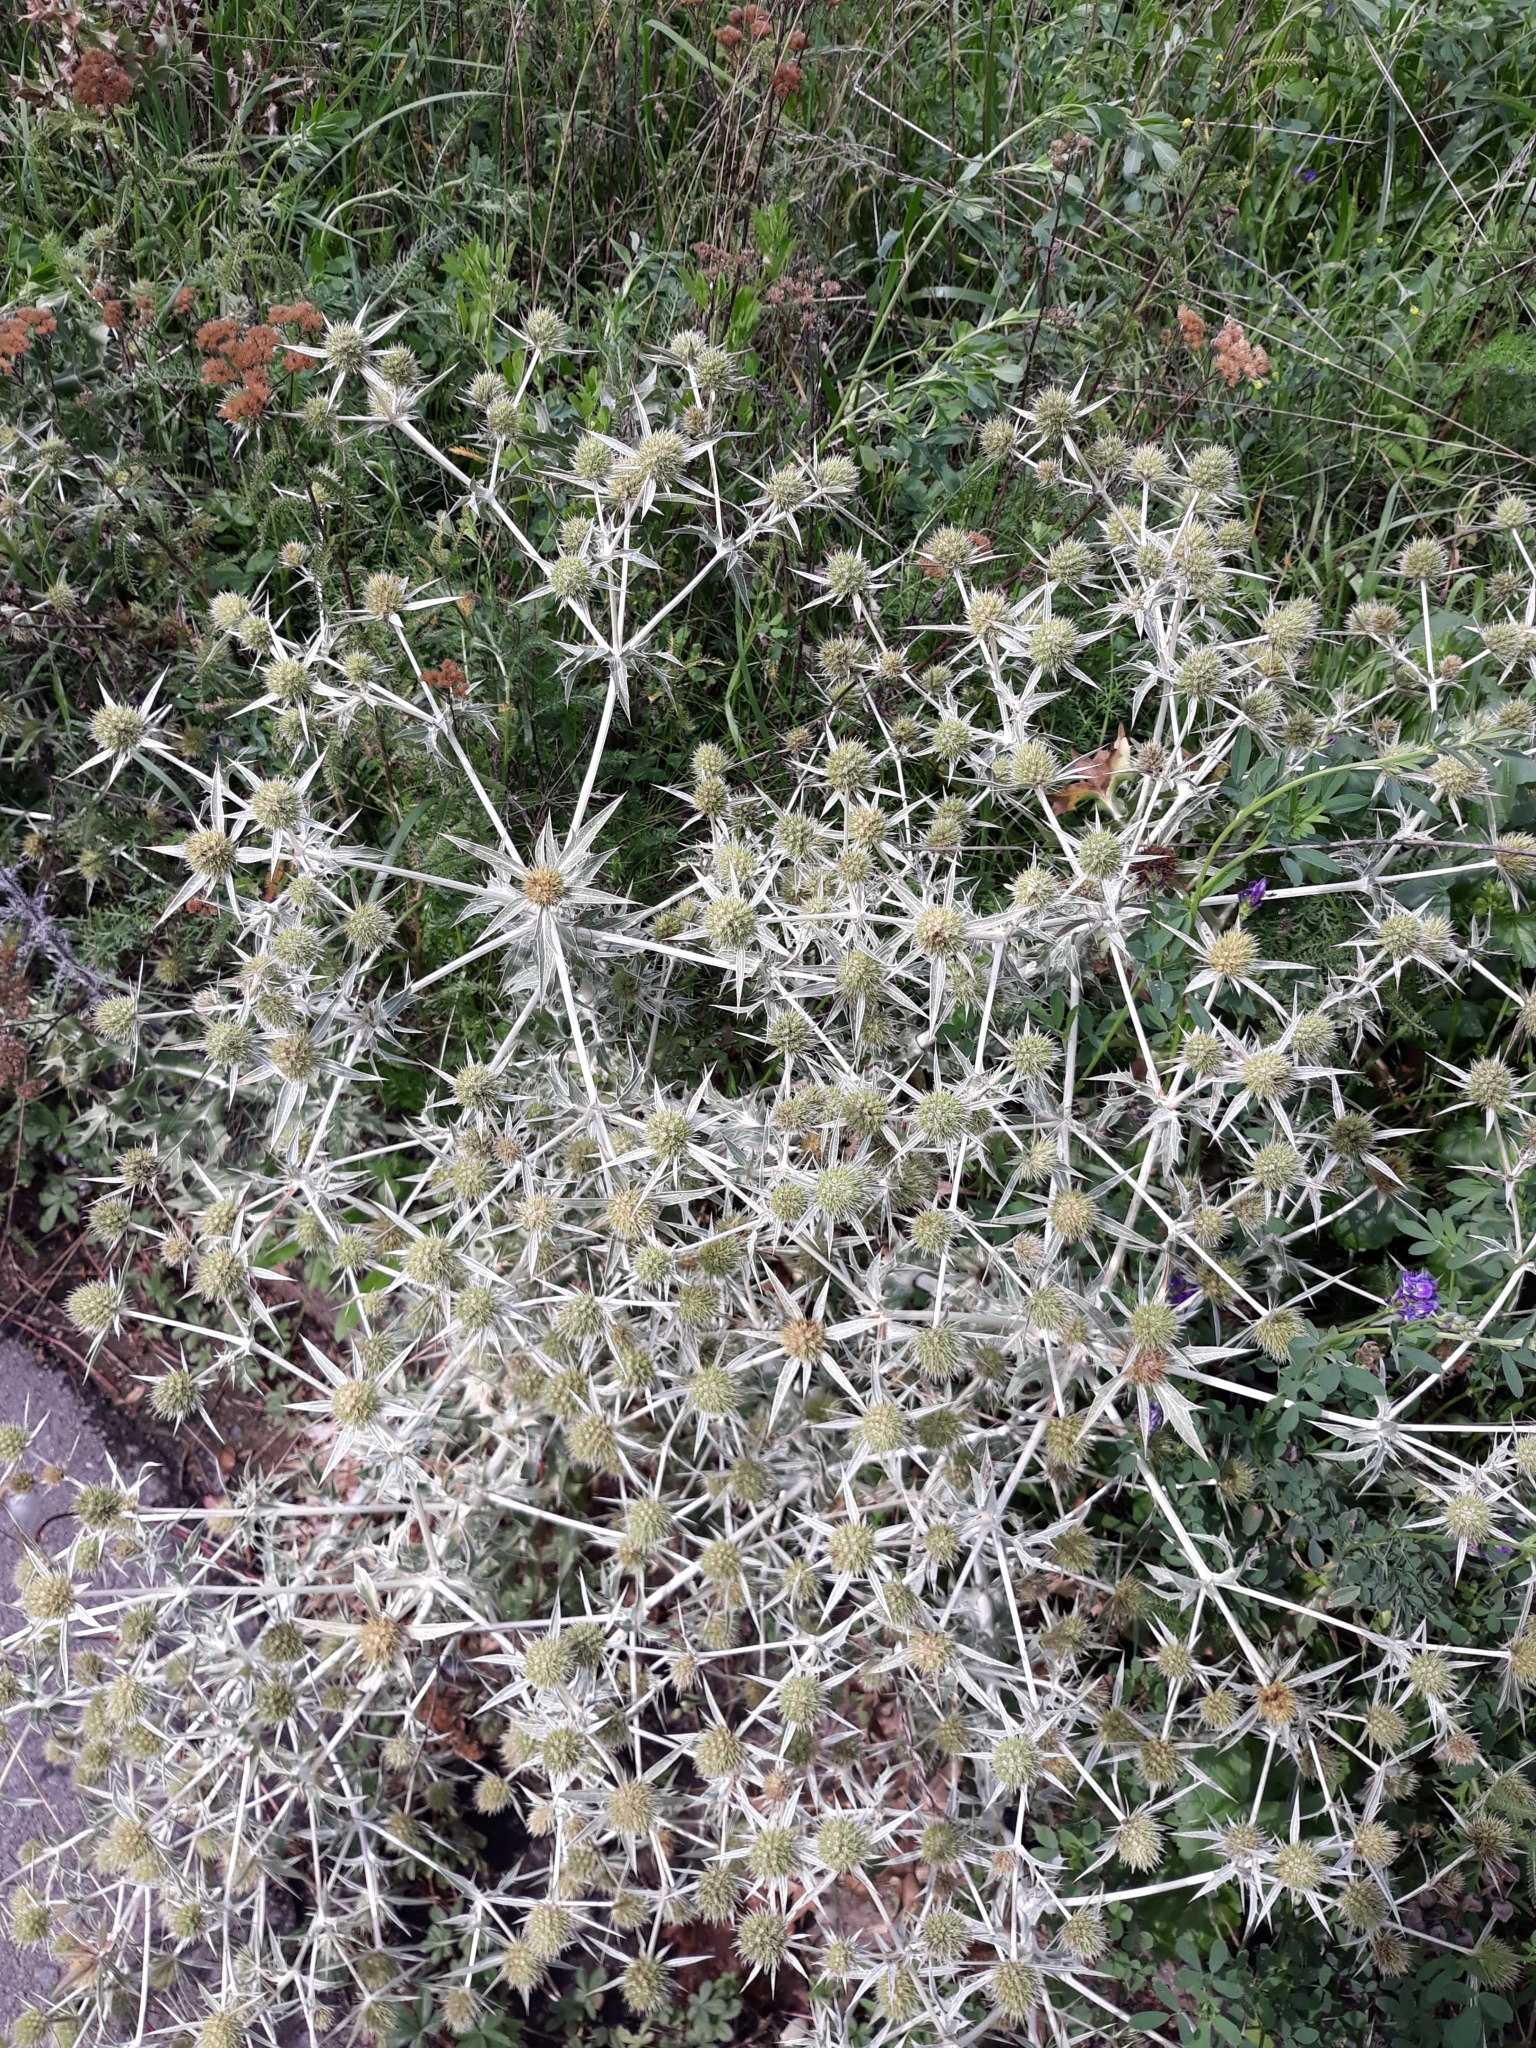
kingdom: Plantae
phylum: Tracheophyta
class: Magnoliopsida
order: Apiales
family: Apiaceae
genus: Eryngium
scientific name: Eryngium campestre
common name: Field eryngo
